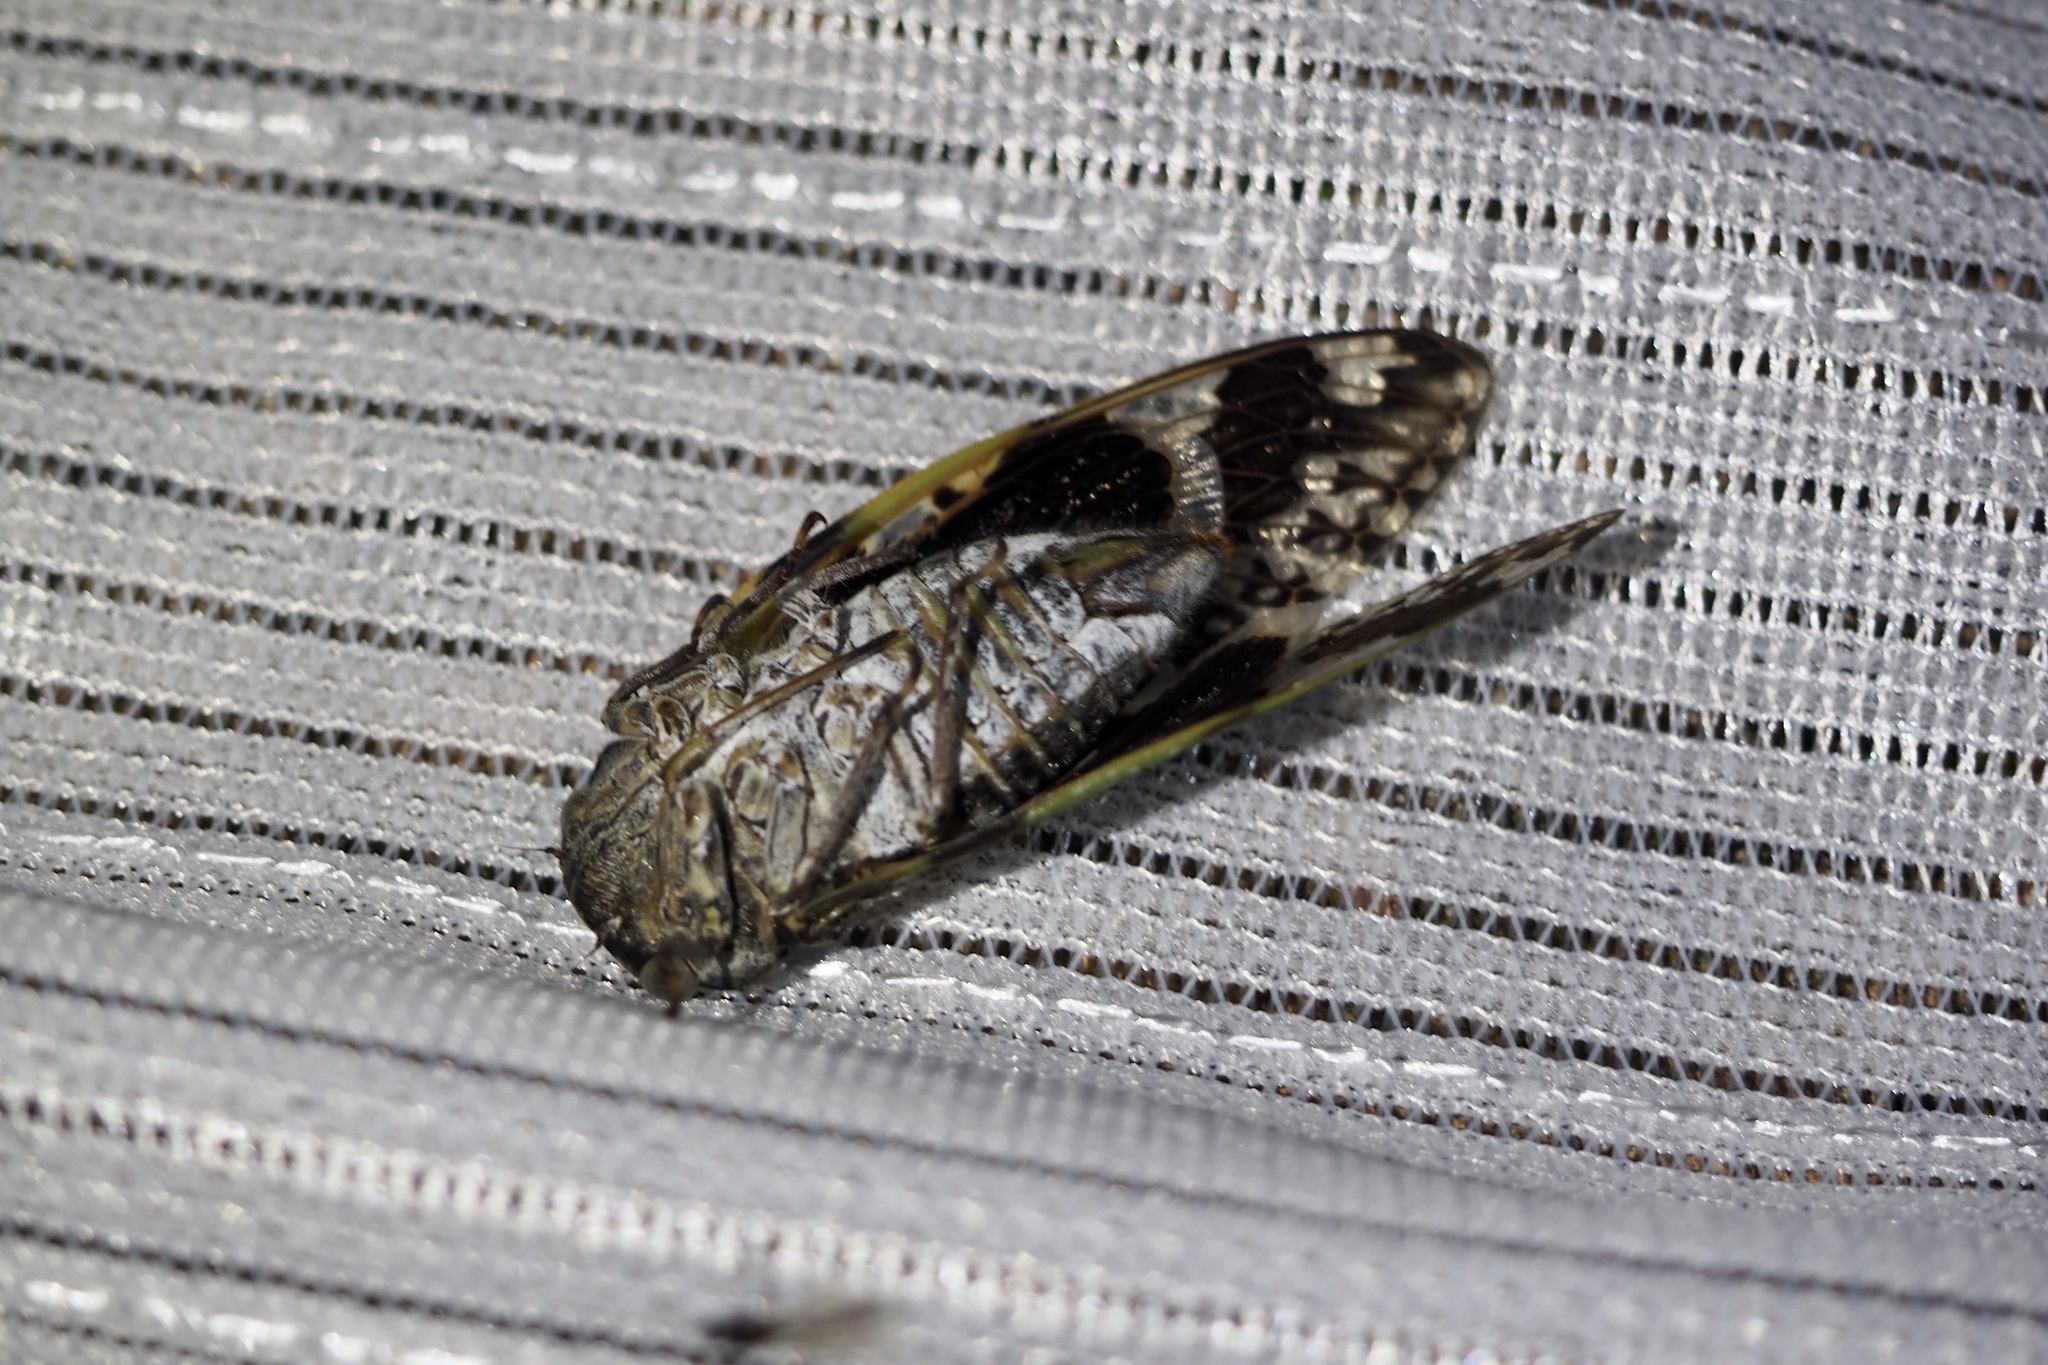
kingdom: Animalia
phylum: Arthropoda
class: Insecta
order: Hemiptera
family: Cicadidae
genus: Platypleura
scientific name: Platypleura kaempferi
